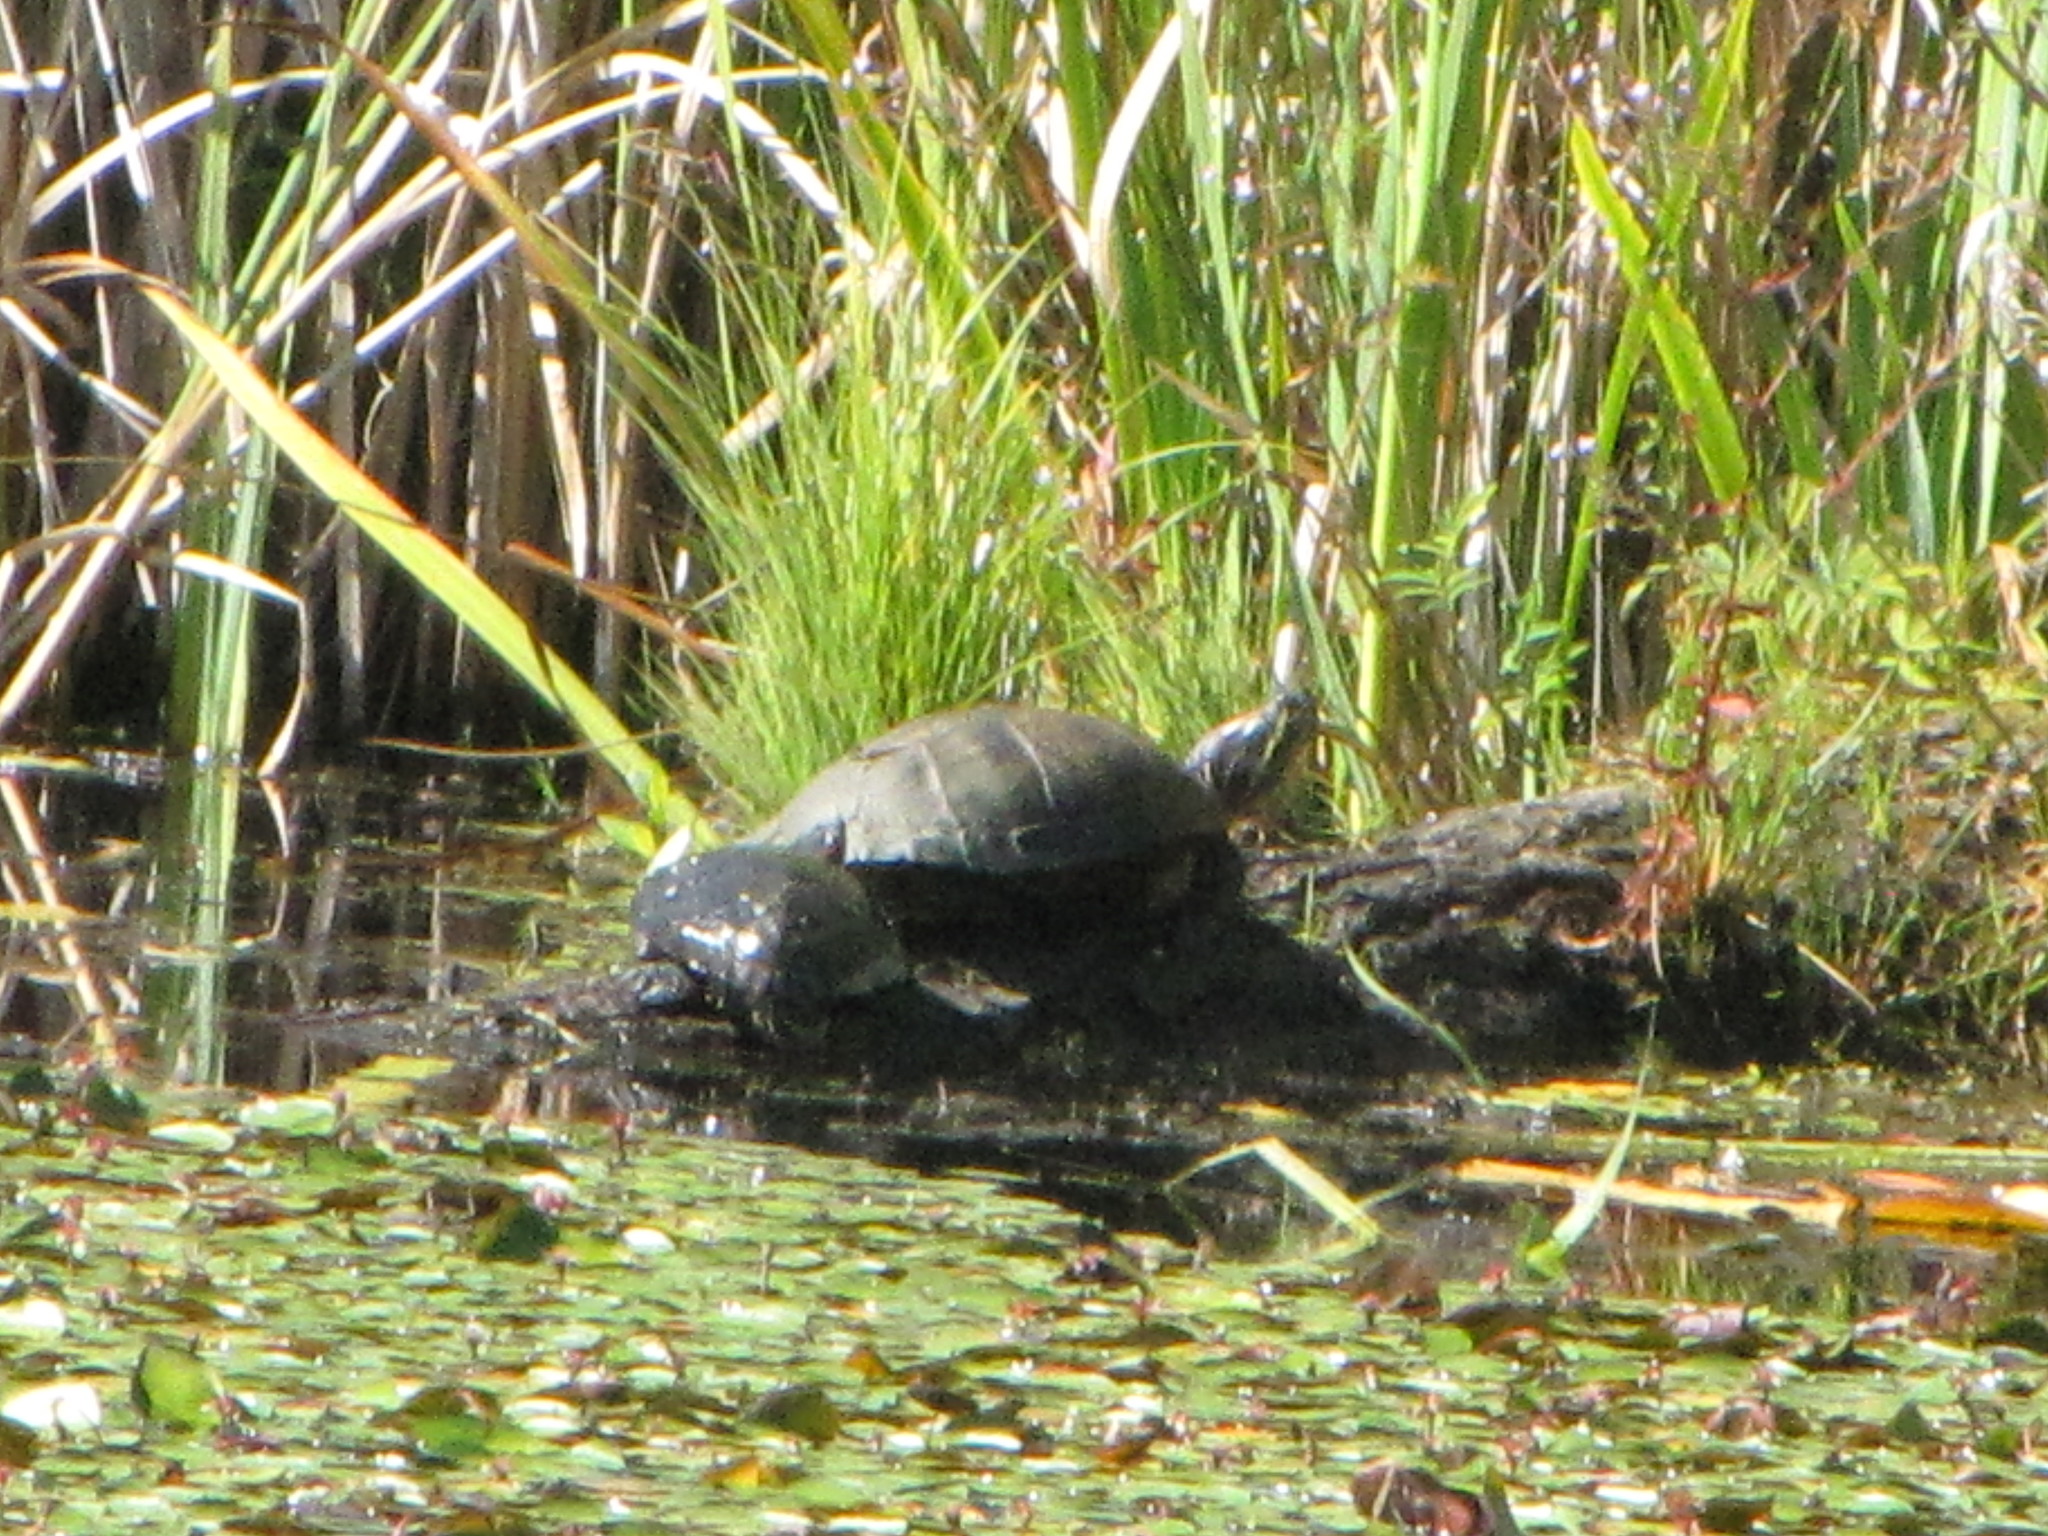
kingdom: Animalia
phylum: Chordata
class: Testudines
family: Emydidae
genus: Chrysemys
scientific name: Chrysemys picta
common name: Painted turtle
